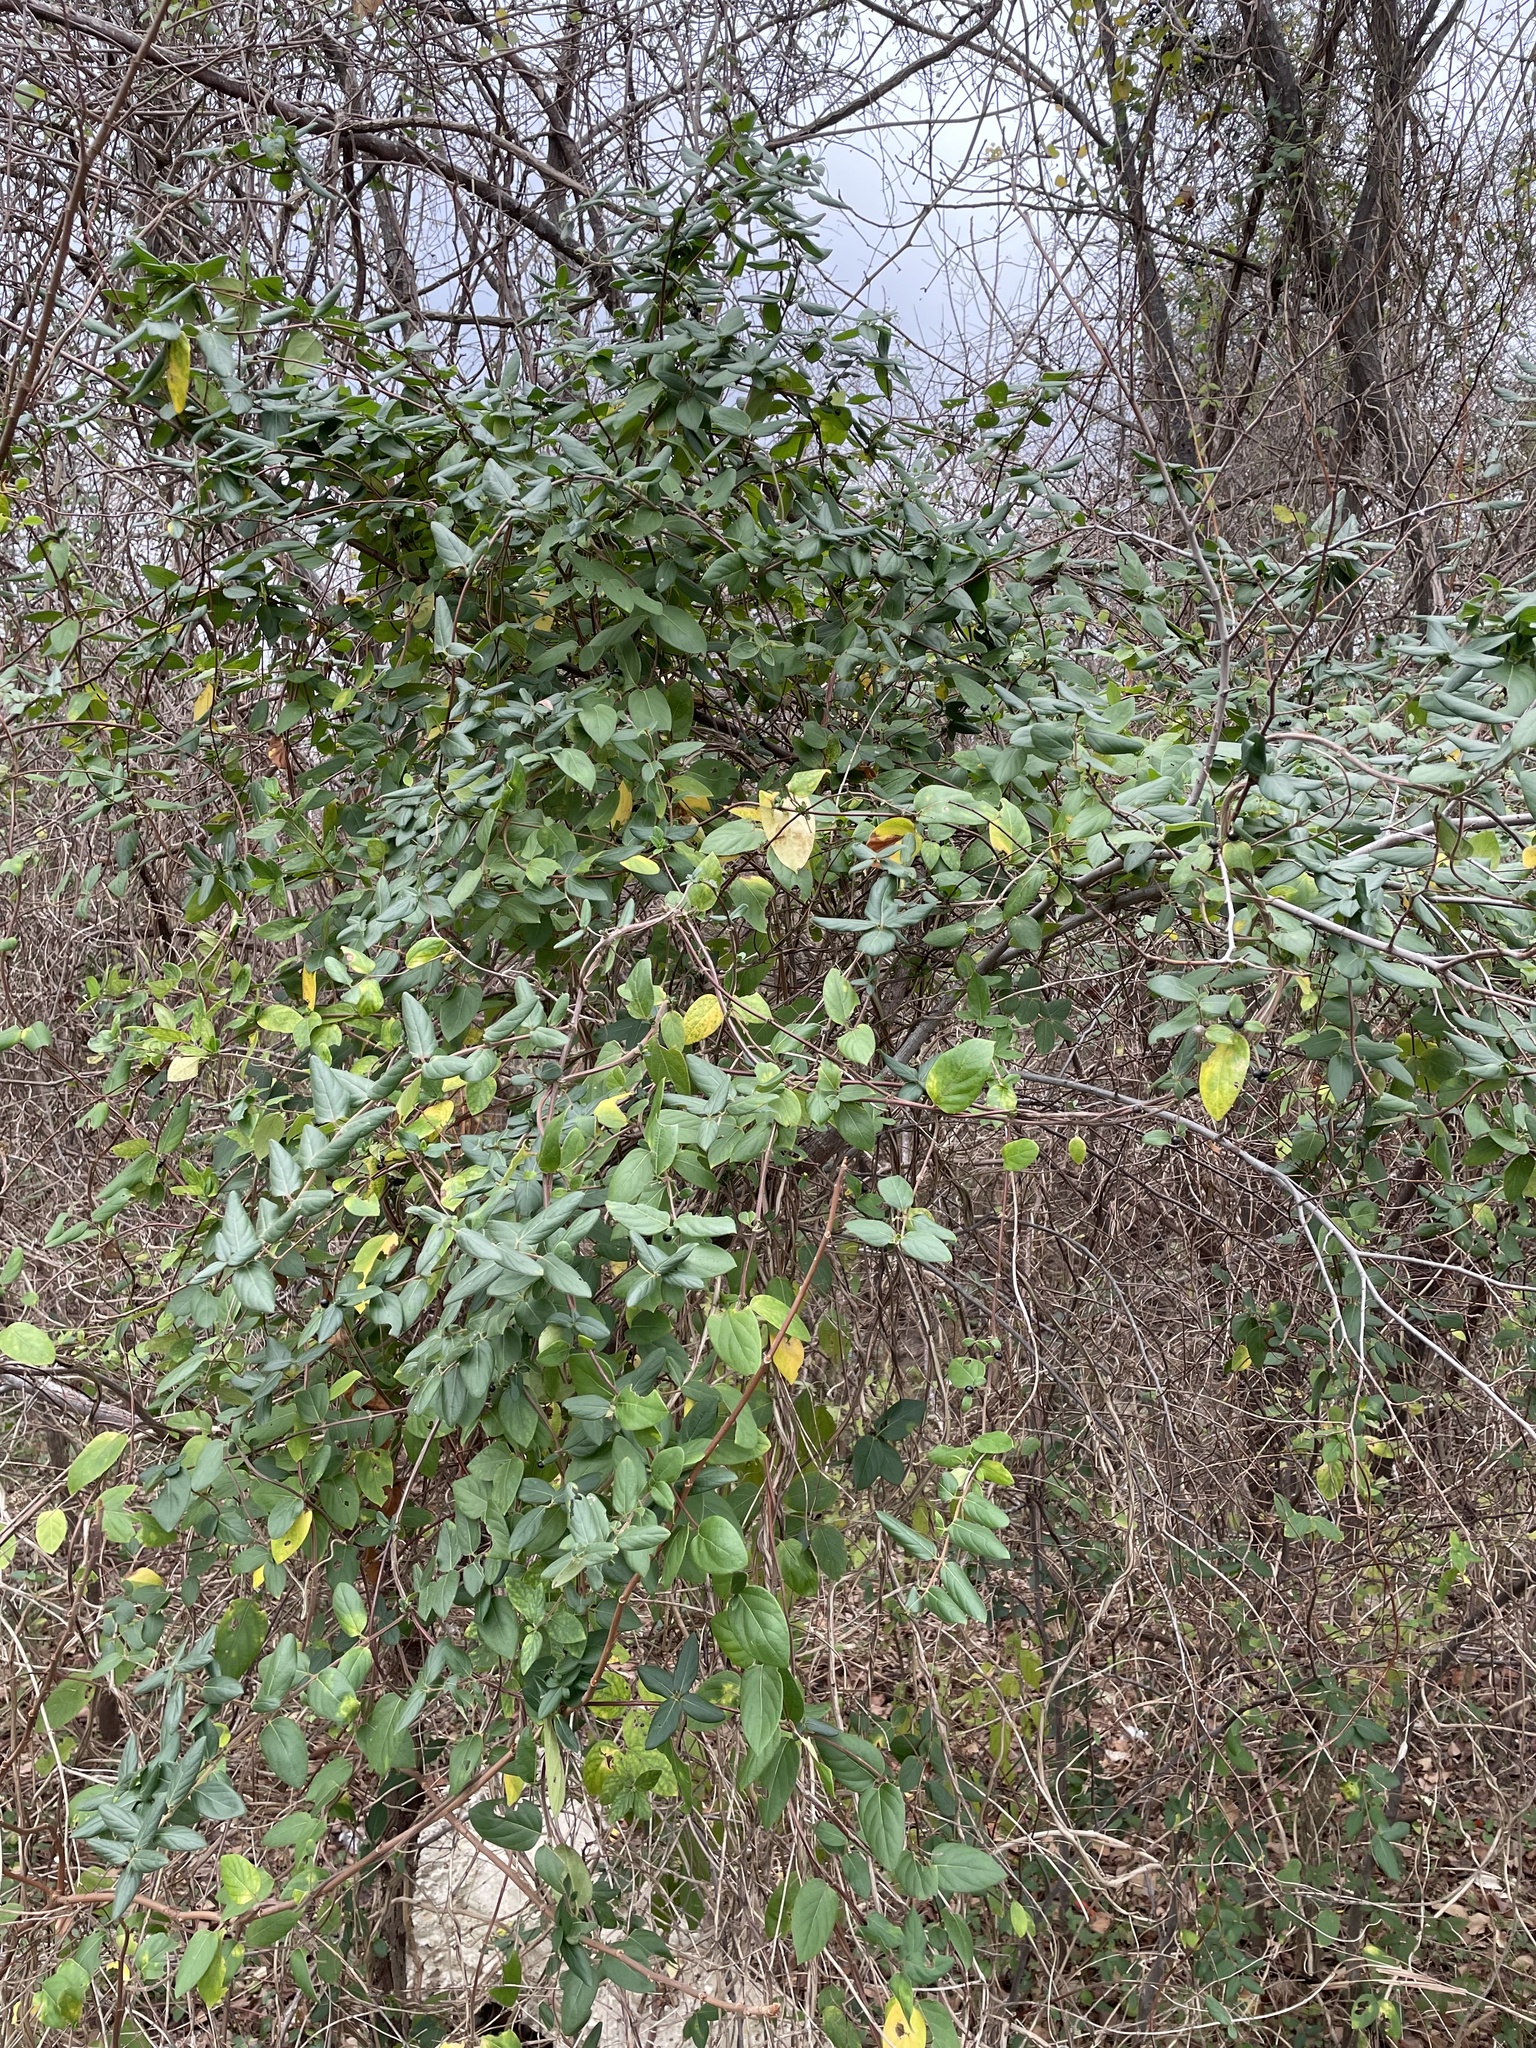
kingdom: Plantae
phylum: Tracheophyta
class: Magnoliopsida
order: Dipsacales
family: Caprifoliaceae
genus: Lonicera
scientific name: Lonicera japonica
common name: Japanese honeysuckle
